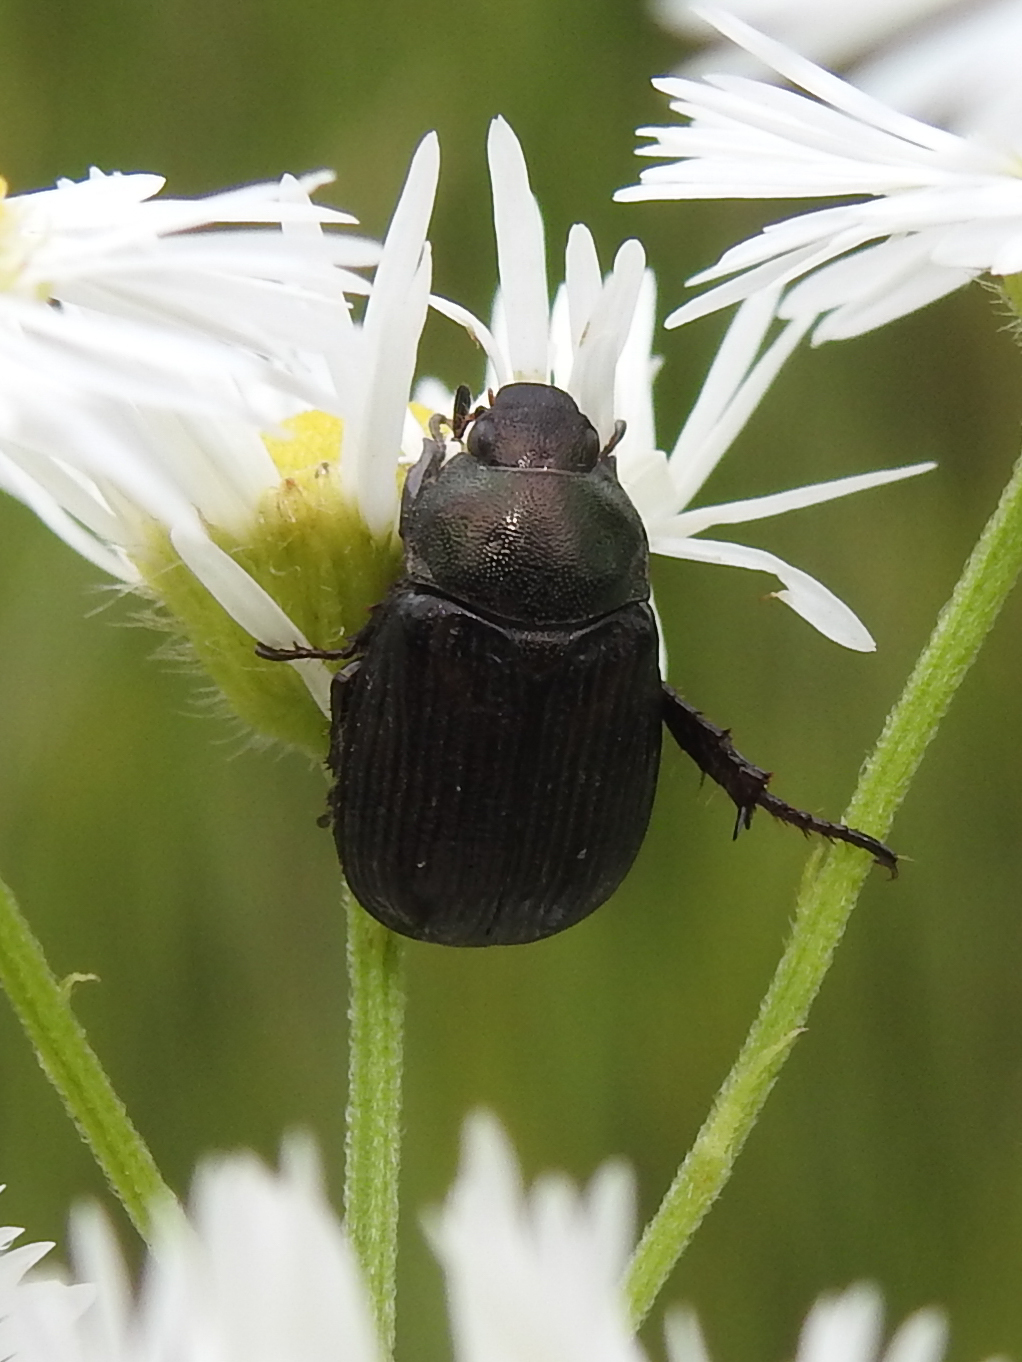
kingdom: Animalia
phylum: Arthropoda
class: Insecta
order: Coleoptera
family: Scarabaeidae
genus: Exomala
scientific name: Exomala orientalis
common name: Oriental beetle
